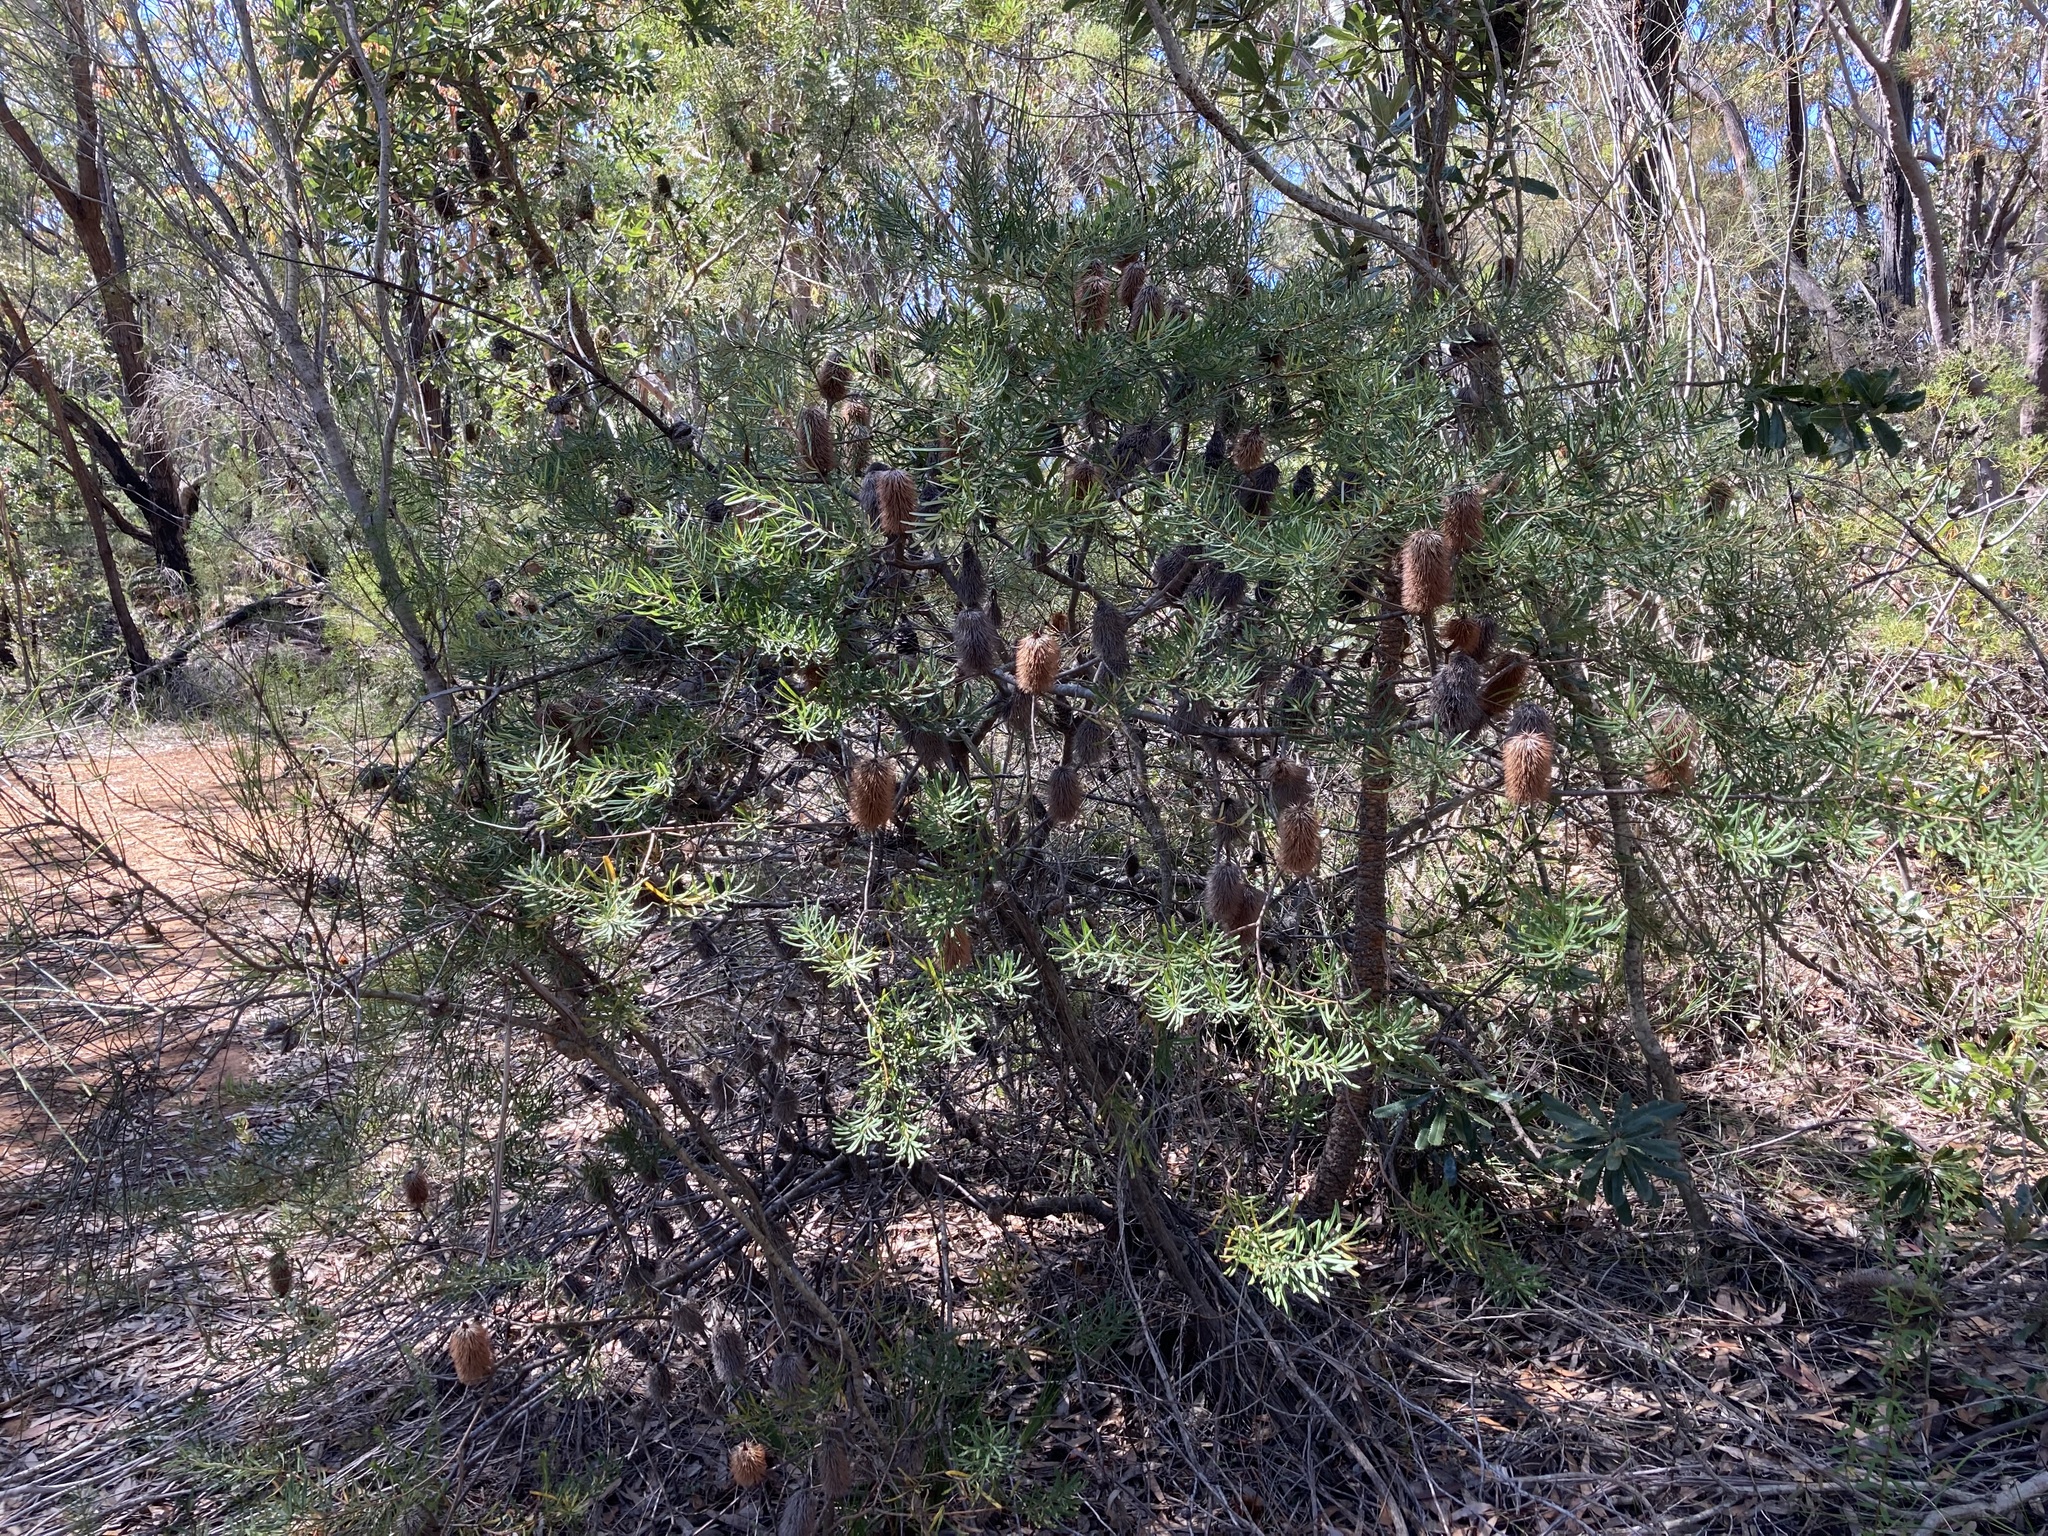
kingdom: Plantae
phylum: Tracheophyta
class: Magnoliopsida
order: Proteales
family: Proteaceae
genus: Banksia
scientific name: Banksia marginata
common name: Silver banksia
